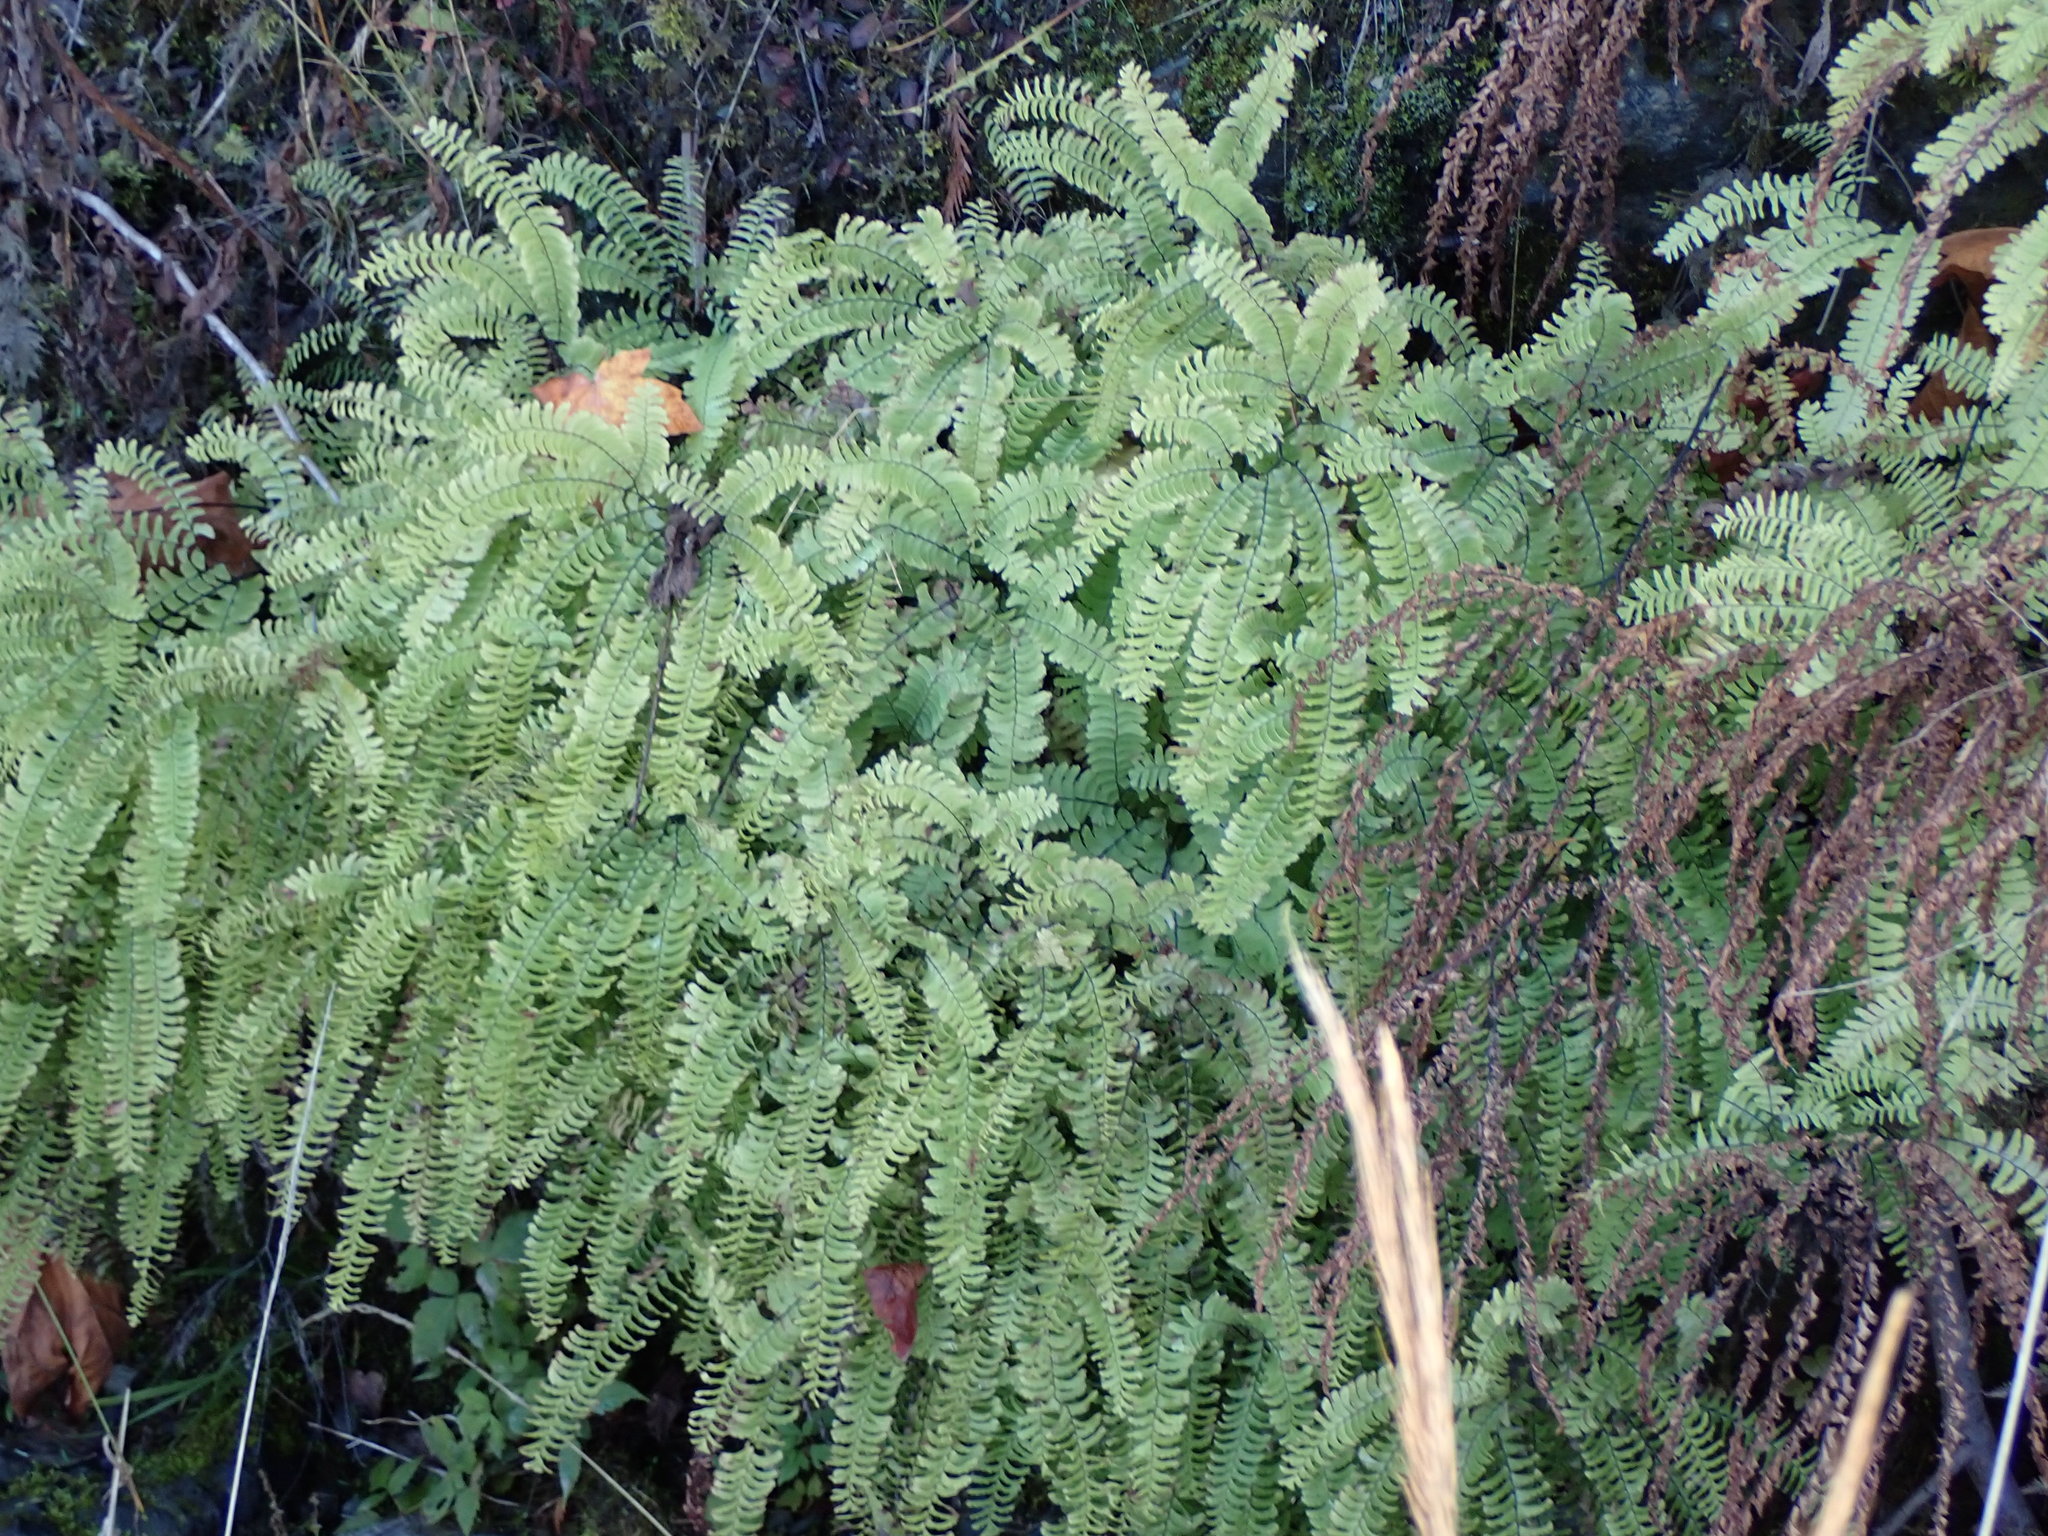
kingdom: Plantae
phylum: Tracheophyta
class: Polypodiopsida
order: Polypodiales
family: Pteridaceae
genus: Adiantum
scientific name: Adiantum aleuticum
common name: Aleutian maidenhair fern
